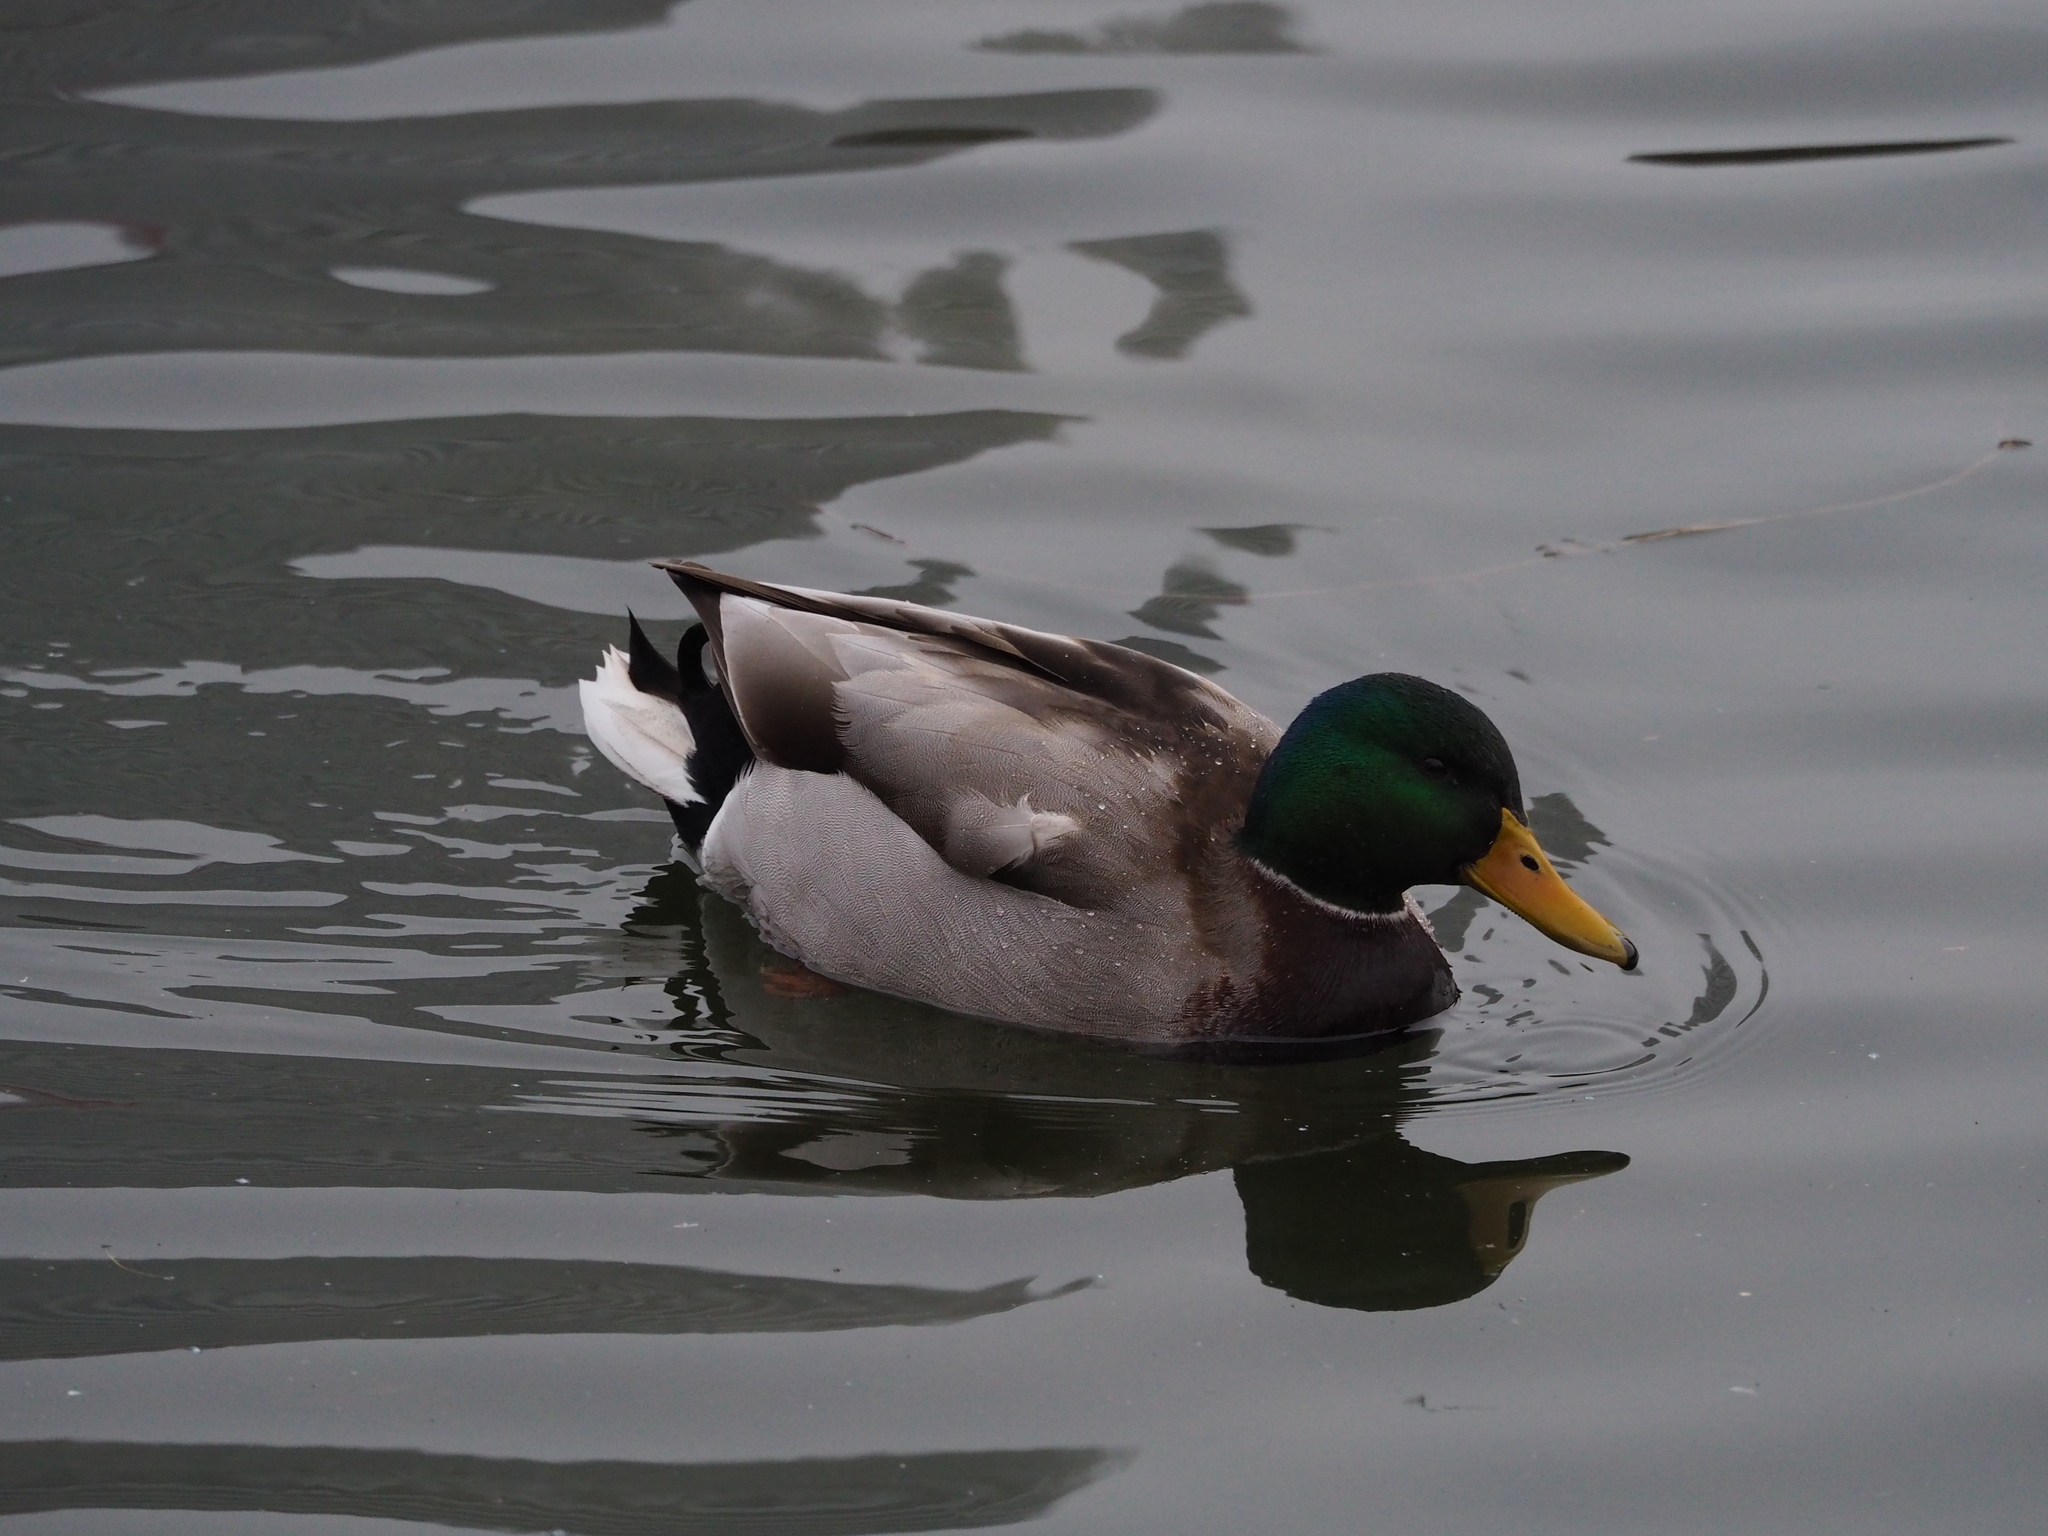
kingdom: Animalia
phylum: Chordata
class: Aves
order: Anseriformes
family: Anatidae
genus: Anas
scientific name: Anas platyrhynchos
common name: Mallard
